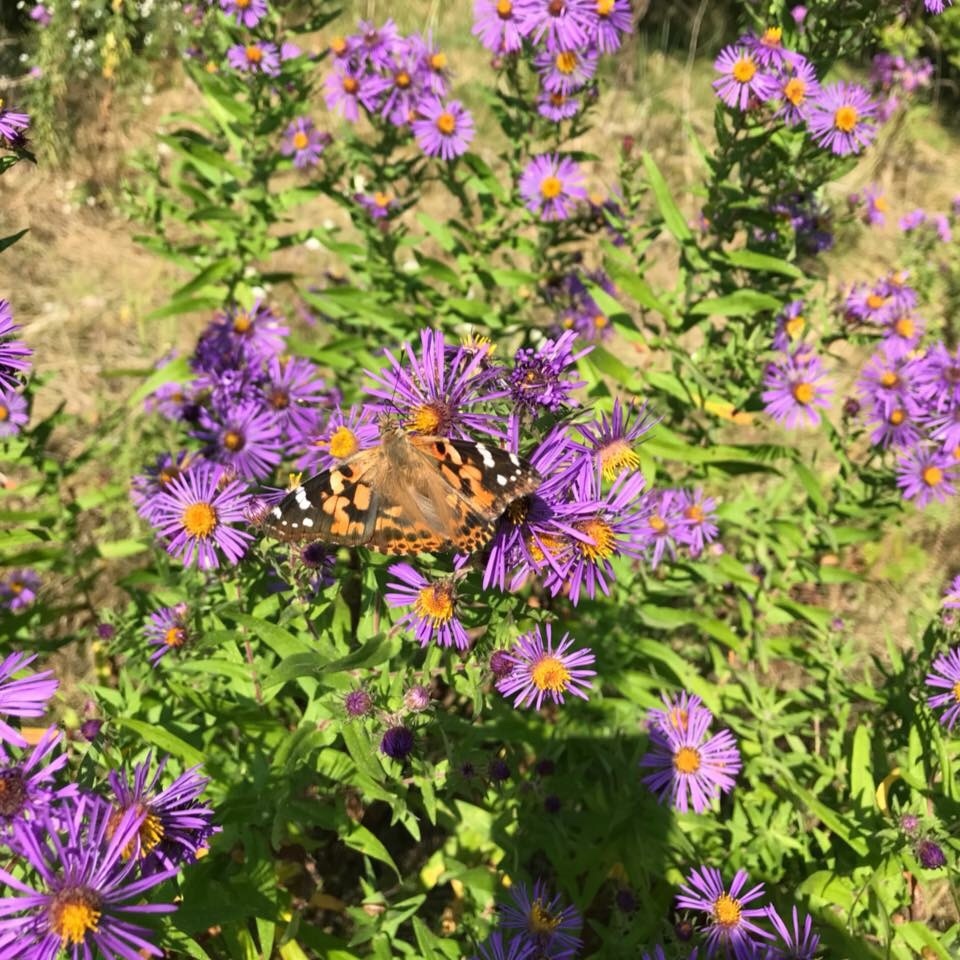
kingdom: Animalia
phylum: Arthropoda
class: Insecta
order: Lepidoptera
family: Nymphalidae
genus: Vanessa
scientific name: Vanessa cardui
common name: Painted lady
